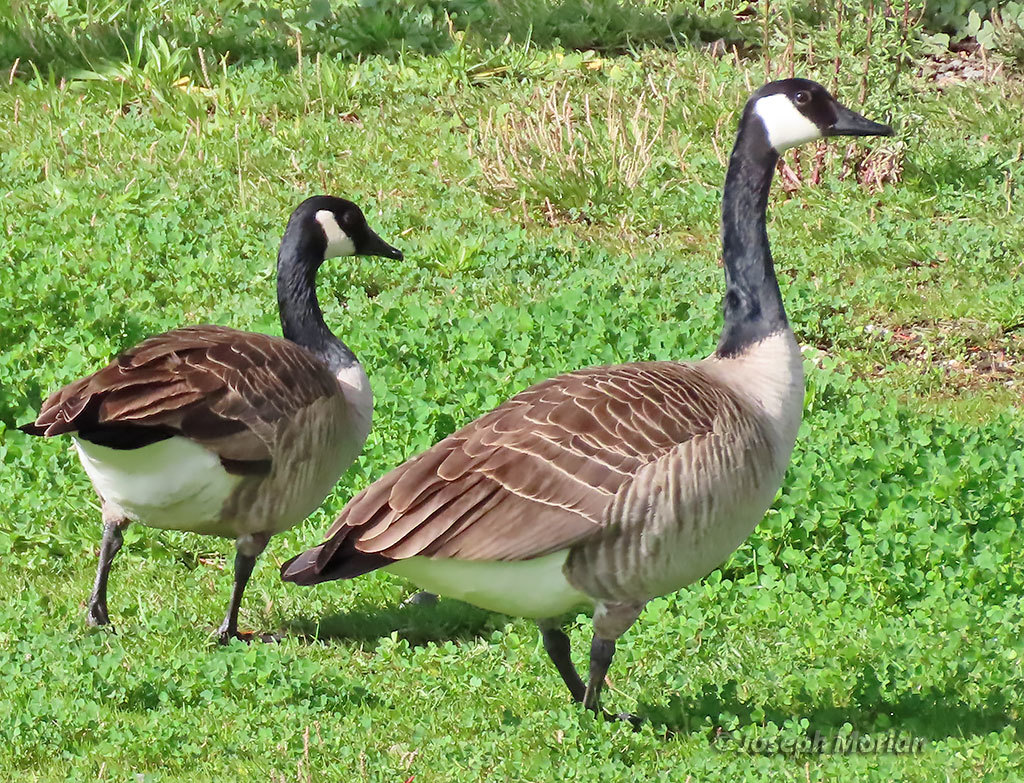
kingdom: Animalia
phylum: Chordata
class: Aves
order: Anseriformes
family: Anatidae
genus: Branta
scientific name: Branta canadensis
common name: Canada goose
